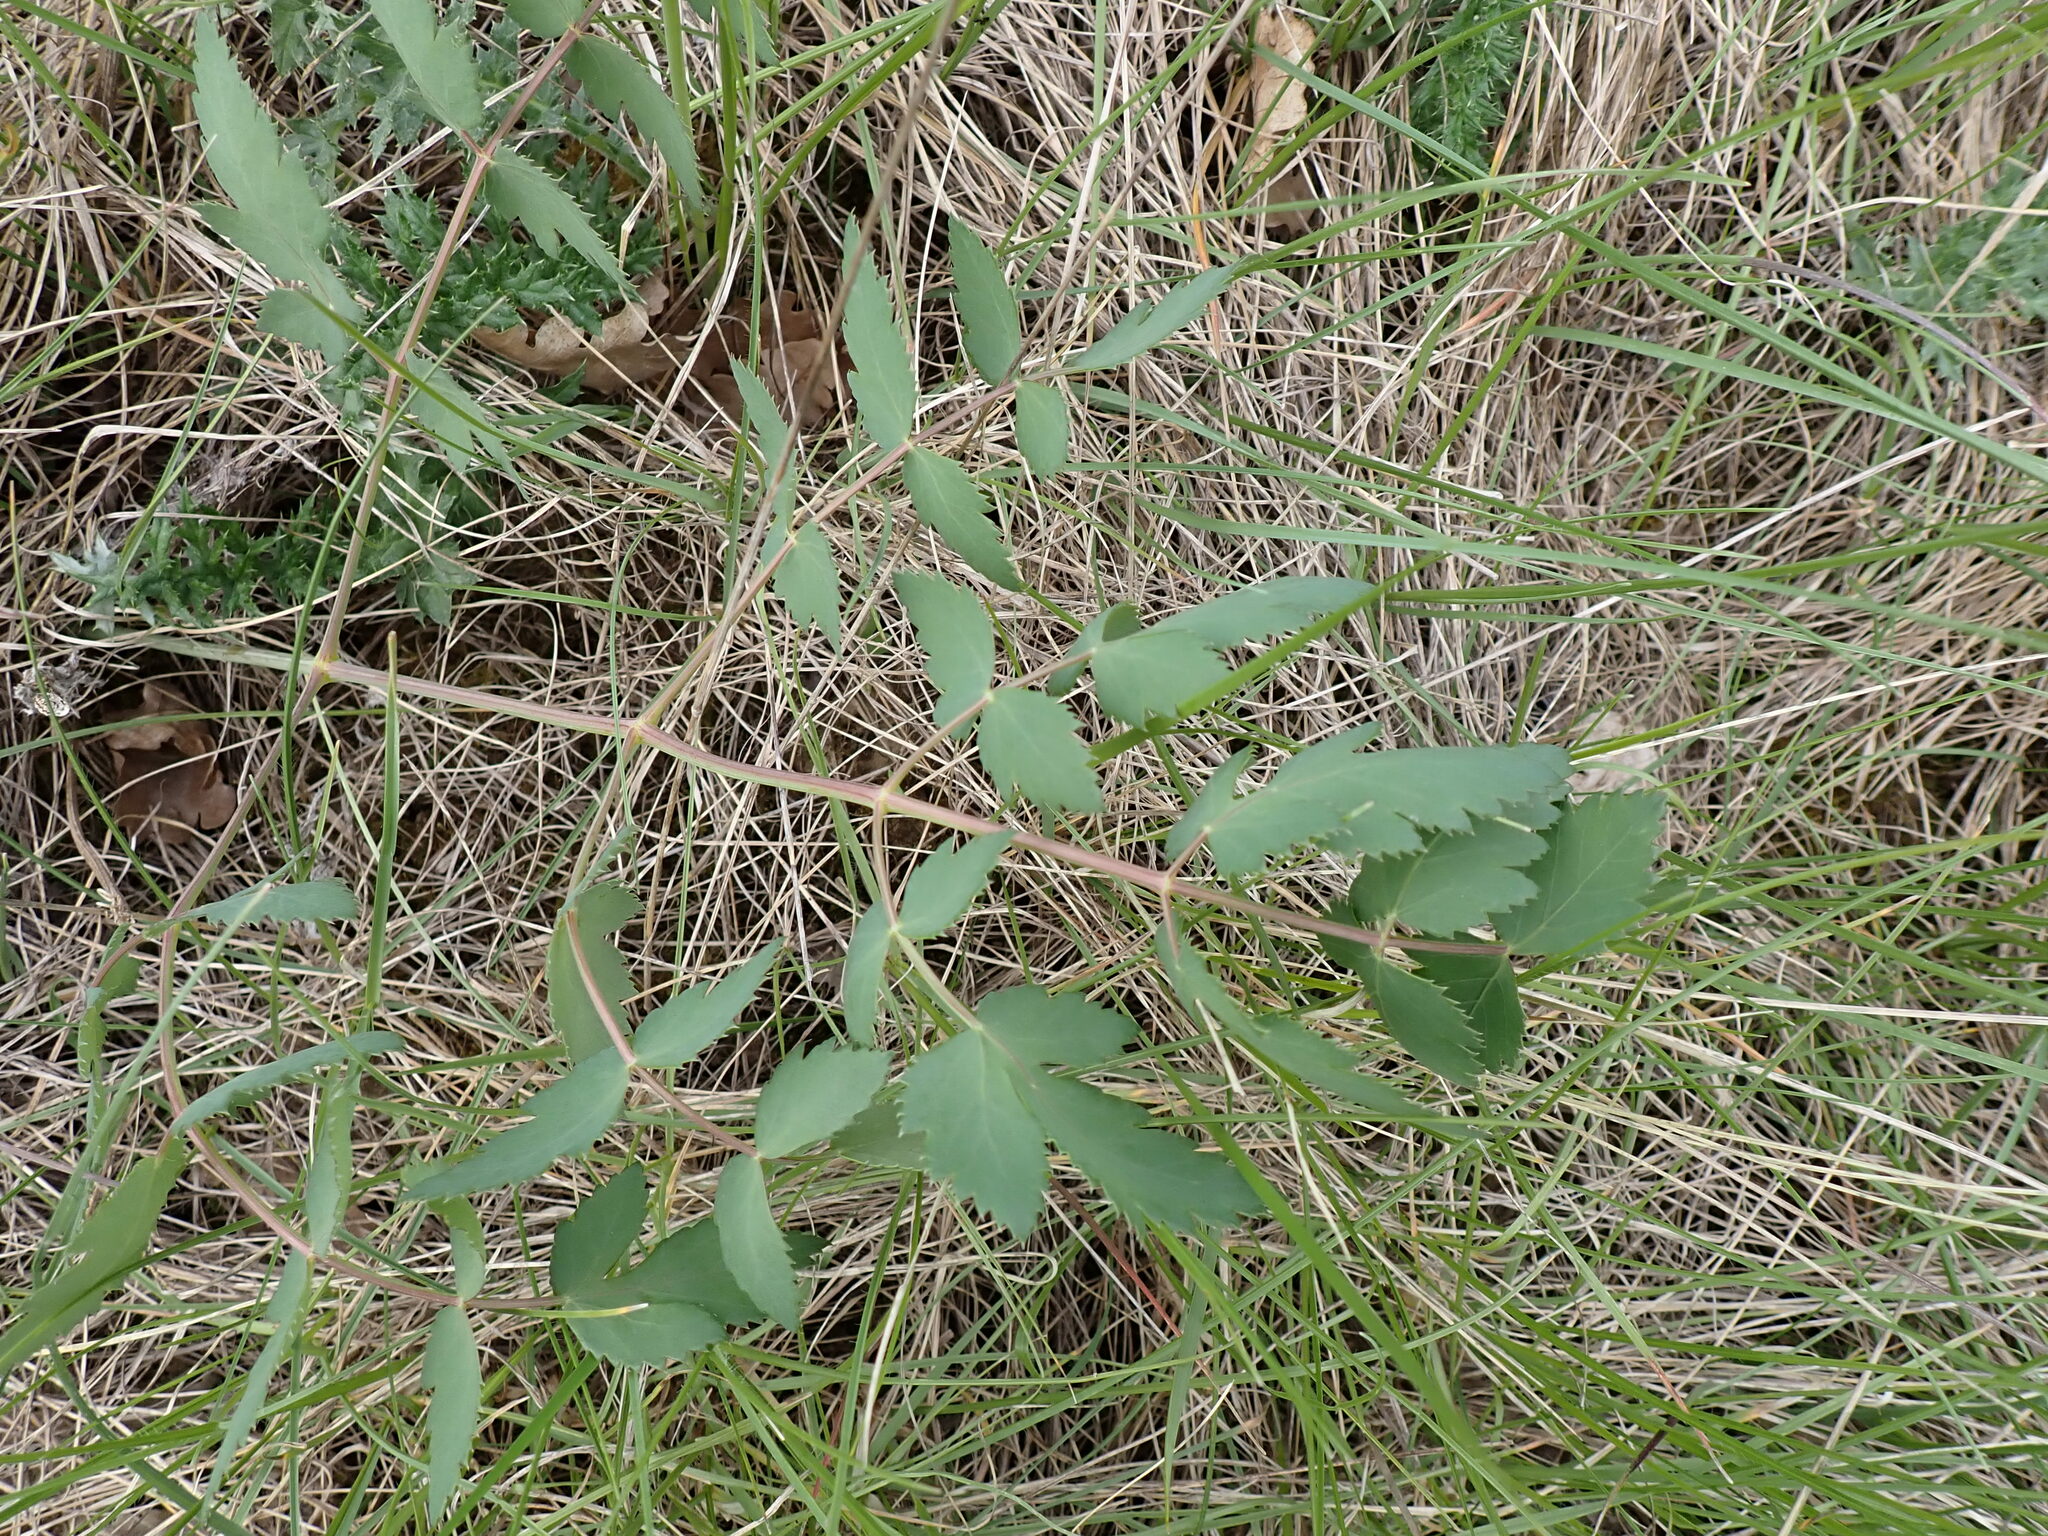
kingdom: Plantae
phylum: Tracheophyta
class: Magnoliopsida
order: Apiales
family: Apiaceae
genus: Cervaria
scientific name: Cervaria rivini
